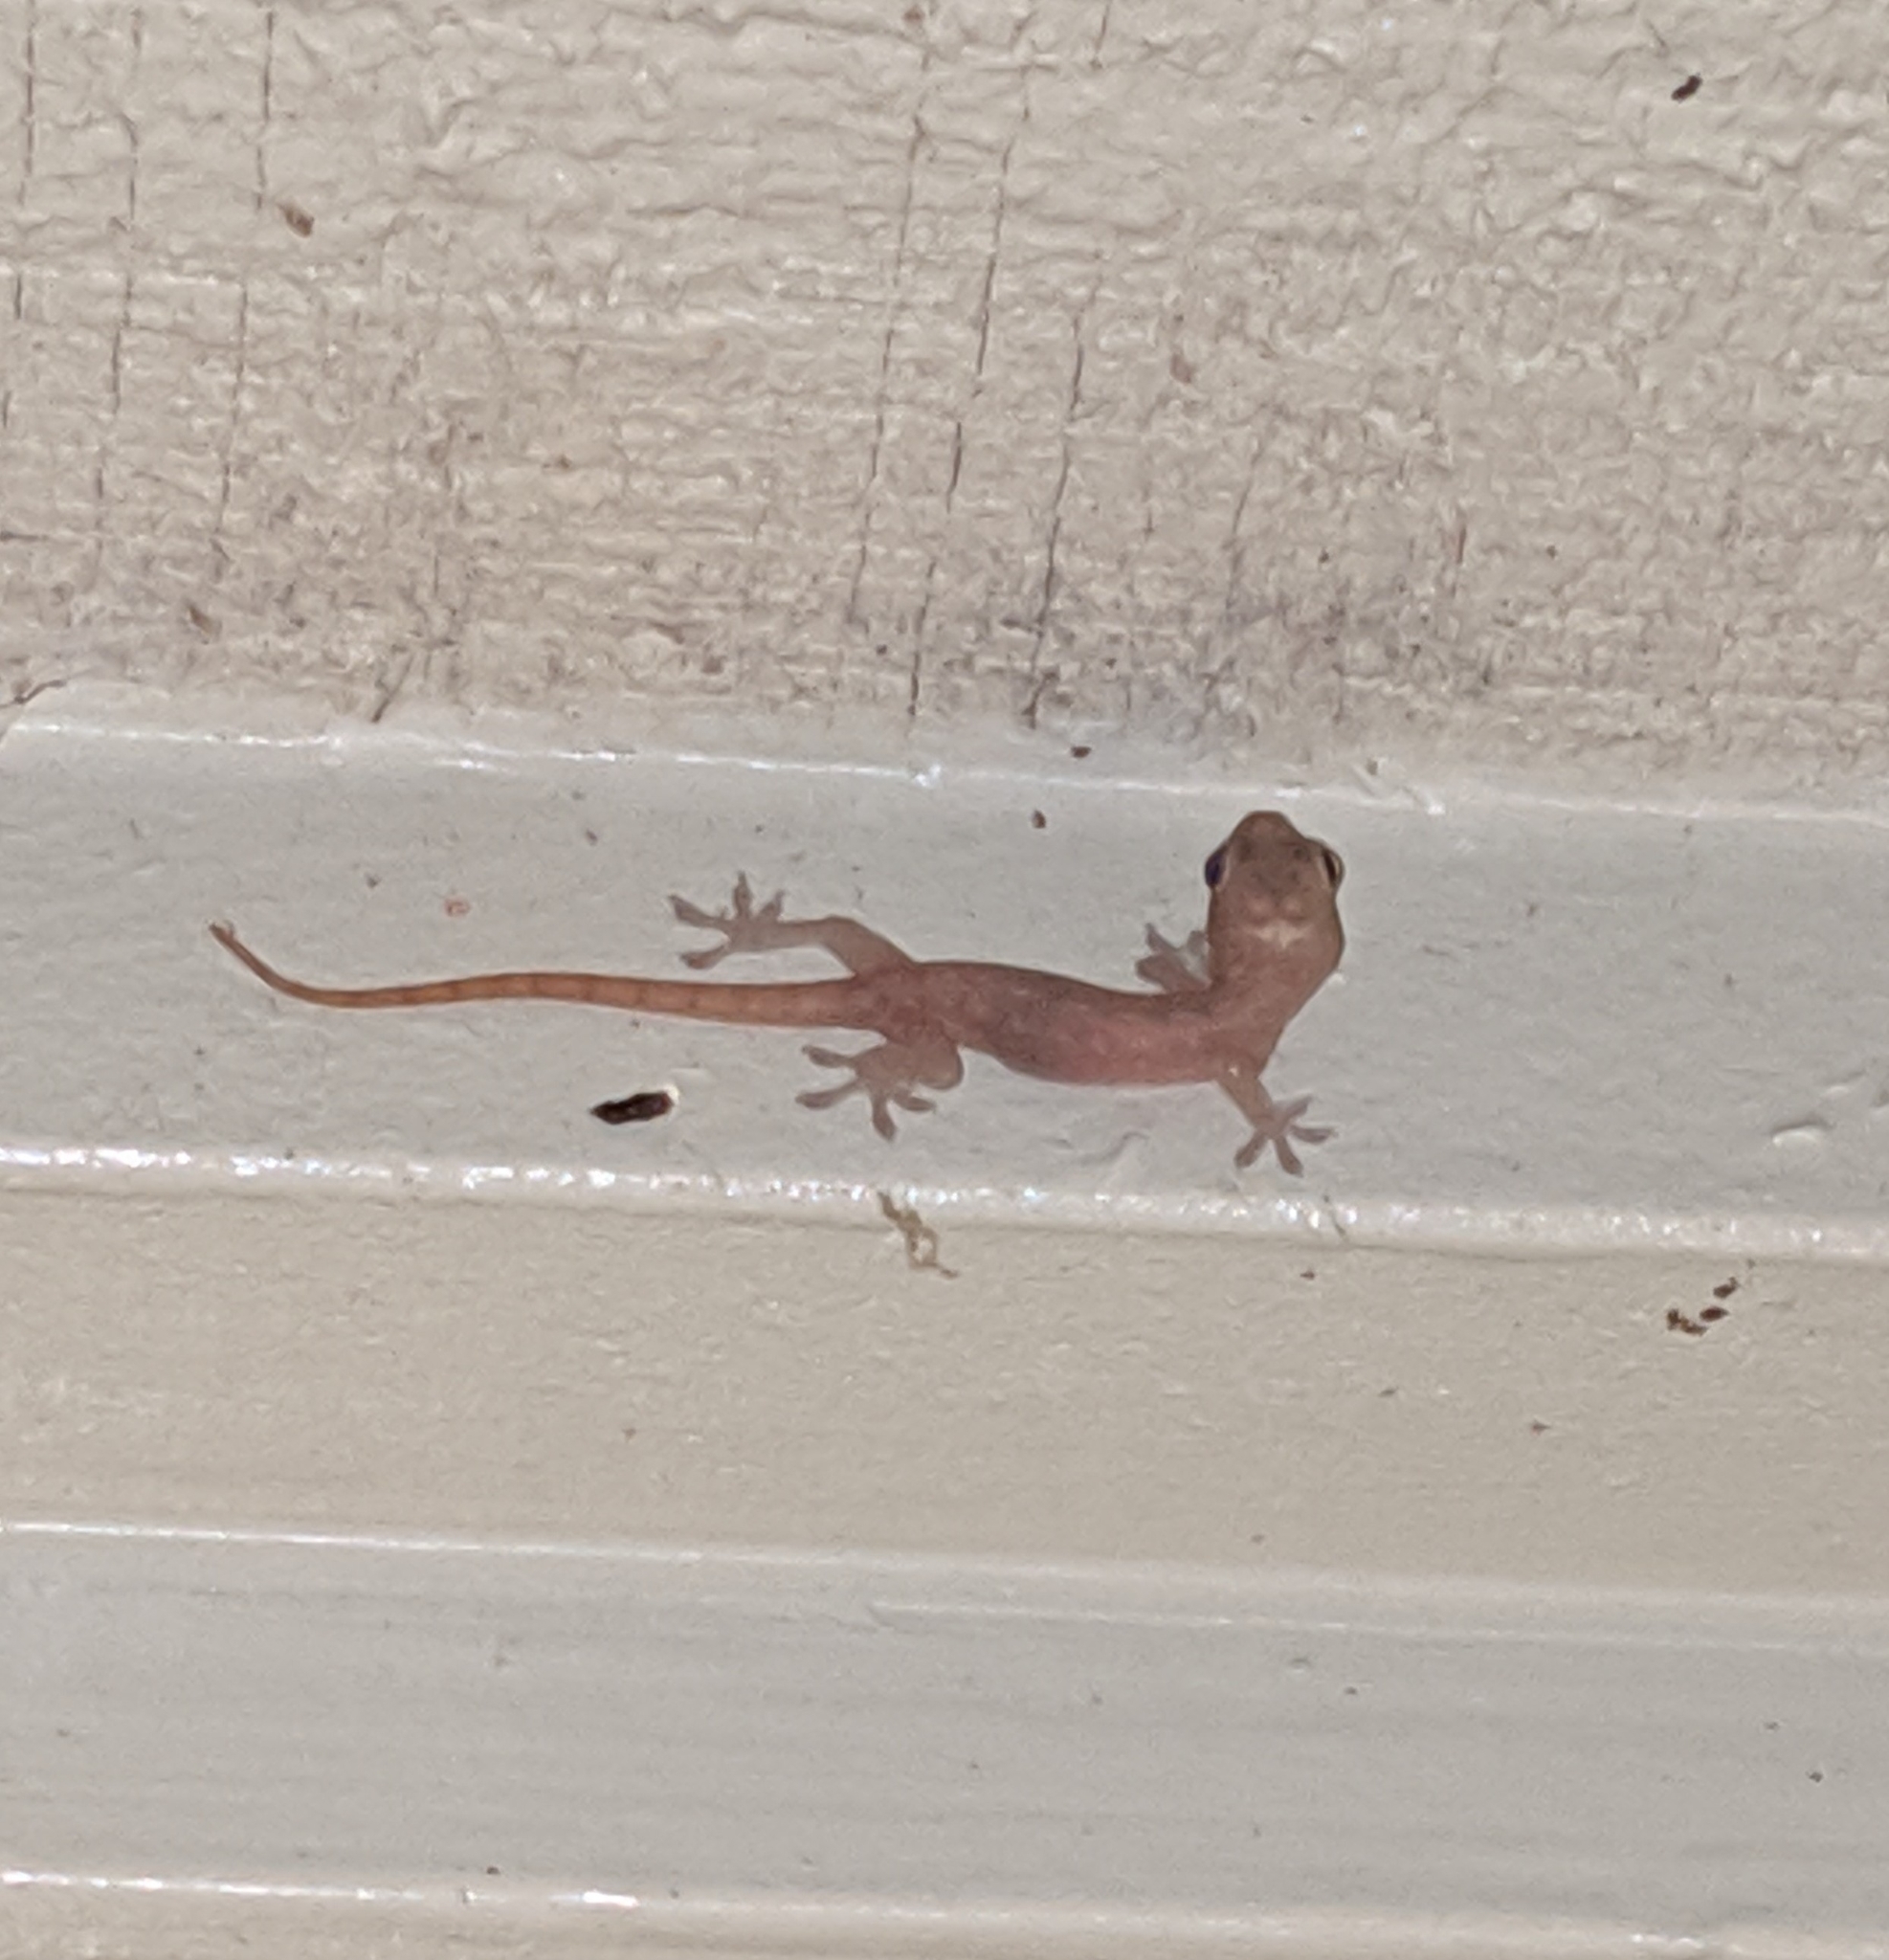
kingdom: Animalia
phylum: Chordata
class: Squamata
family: Gekkonidae
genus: Hemidactylus
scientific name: Hemidactylus frenatus
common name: Common house gecko
